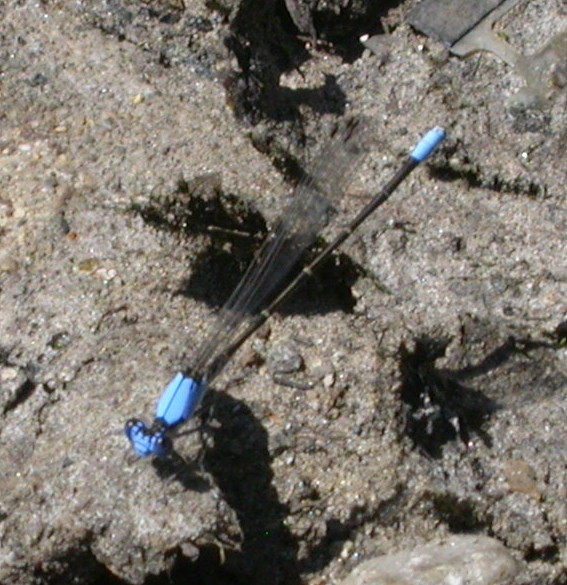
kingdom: Animalia
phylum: Arthropoda
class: Insecta
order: Odonata
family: Coenagrionidae
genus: Argia
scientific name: Argia apicalis
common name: Blue-fronted dancer
